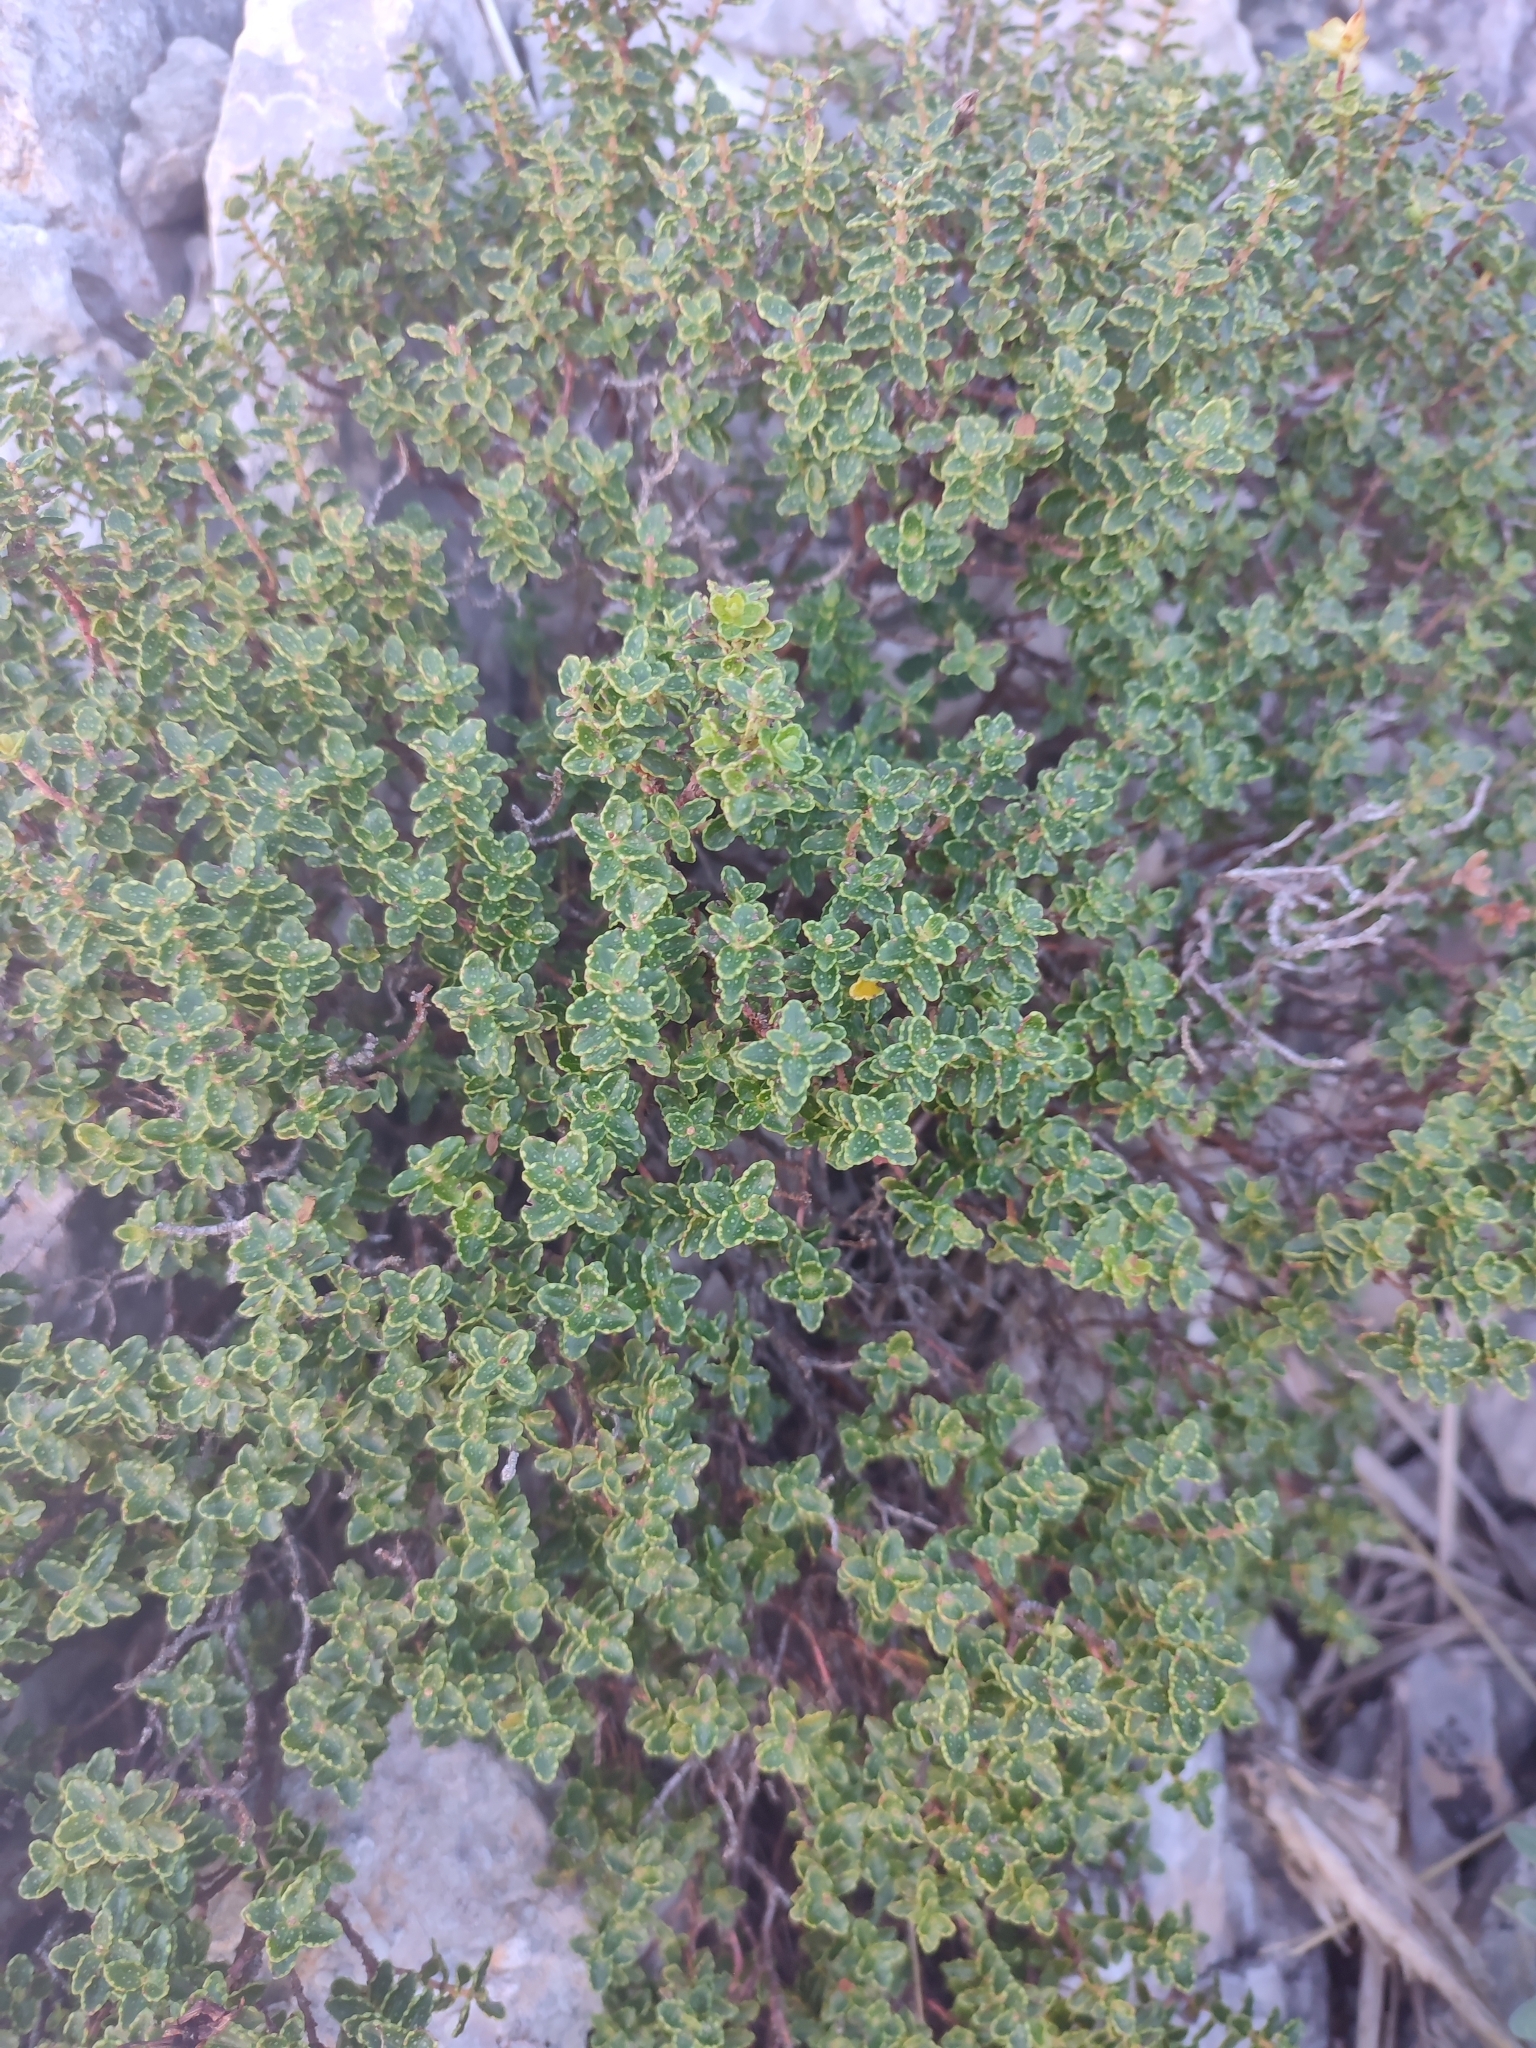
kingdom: Plantae
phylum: Tracheophyta
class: Magnoliopsida
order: Malpighiales
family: Hypericaceae
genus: Hypericum
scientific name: Hypericum balearicum
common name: Majorca st john's wort
